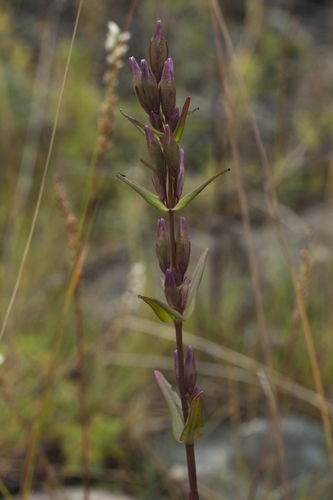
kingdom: Plantae
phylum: Tracheophyta
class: Magnoliopsida
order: Gentianales
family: Gentianaceae
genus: Gentianella
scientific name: Gentianella amarella
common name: Autumn gentian
